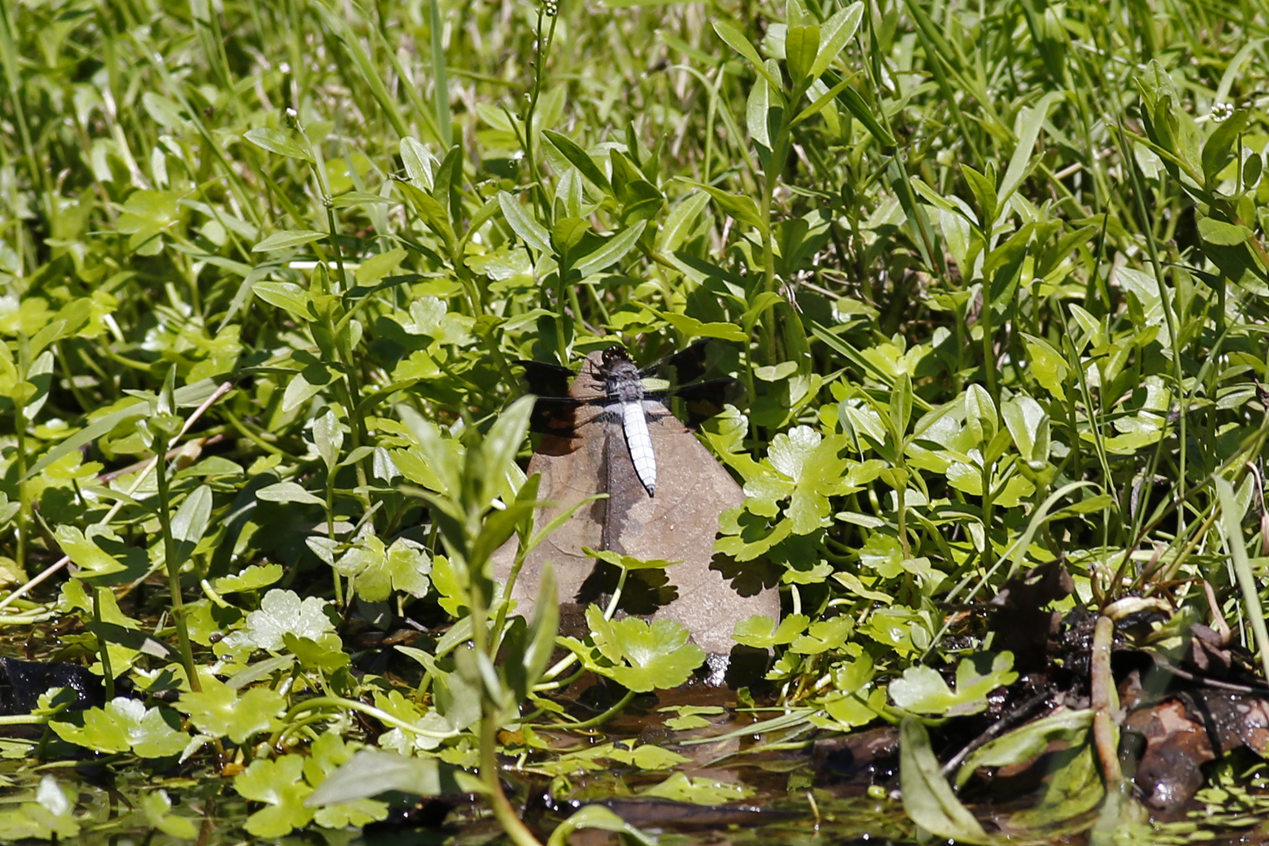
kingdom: Animalia
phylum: Arthropoda
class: Insecta
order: Odonata
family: Libellulidae
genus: Plathemis
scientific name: Plathemis lydia
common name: Common whitetail
